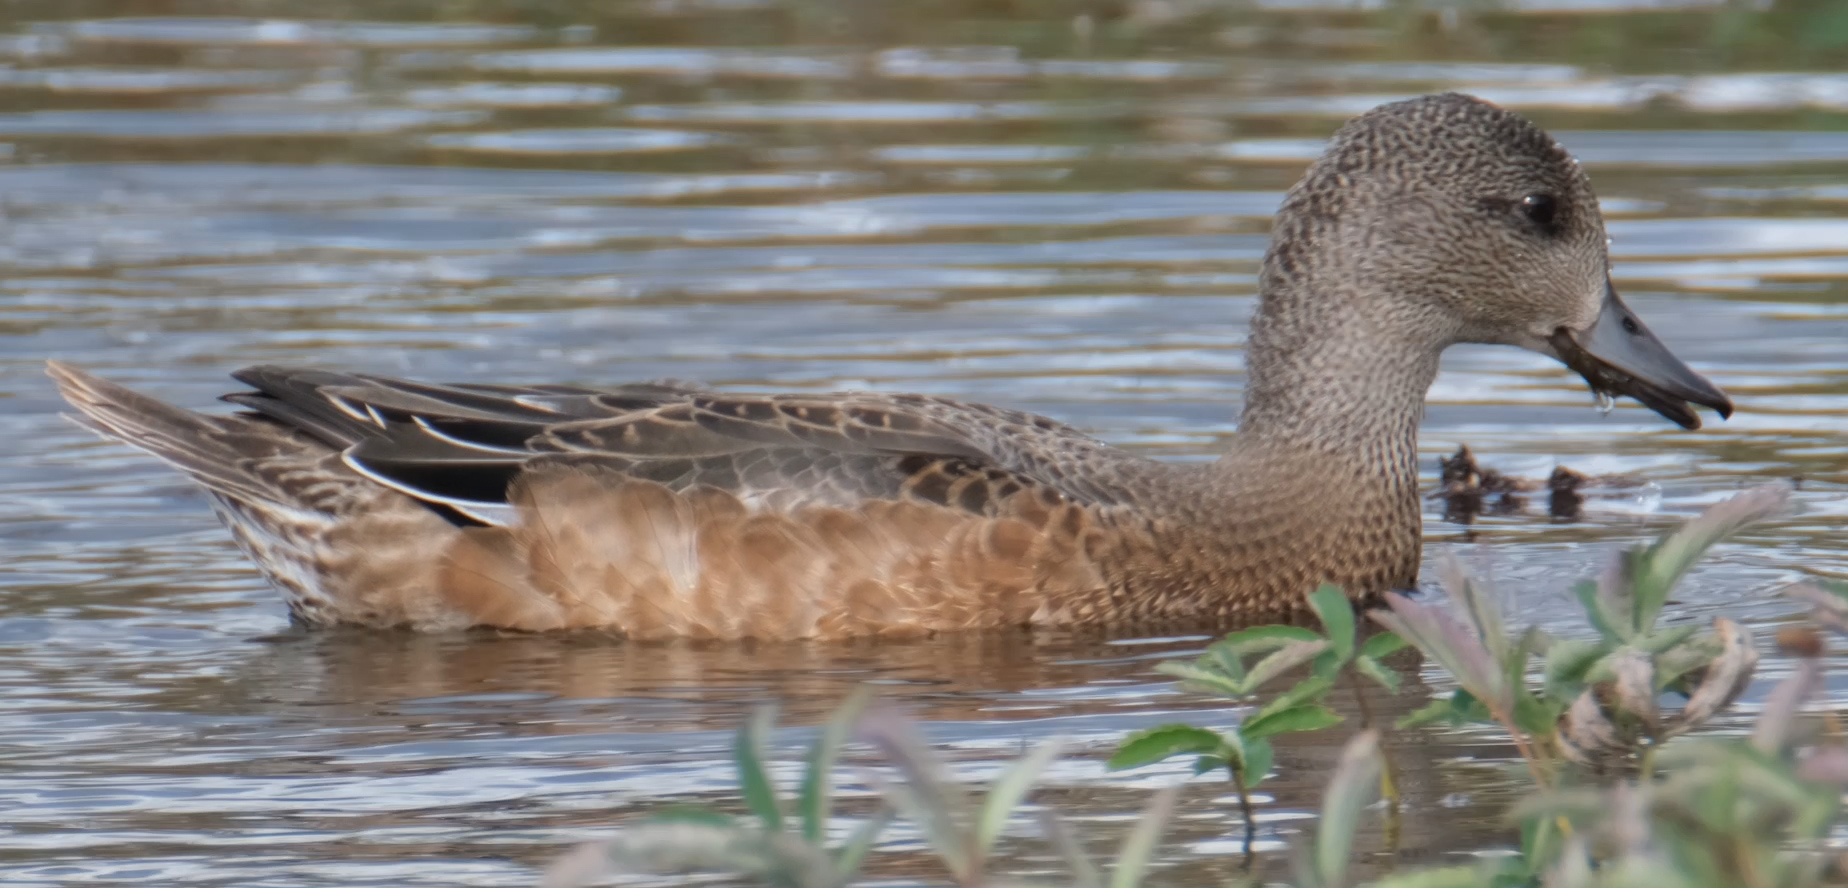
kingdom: Animalia
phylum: Chordata
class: Aves
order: Anseriformes
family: Anatidae
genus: Mareca
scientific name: Mareca americana
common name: American wigeon
